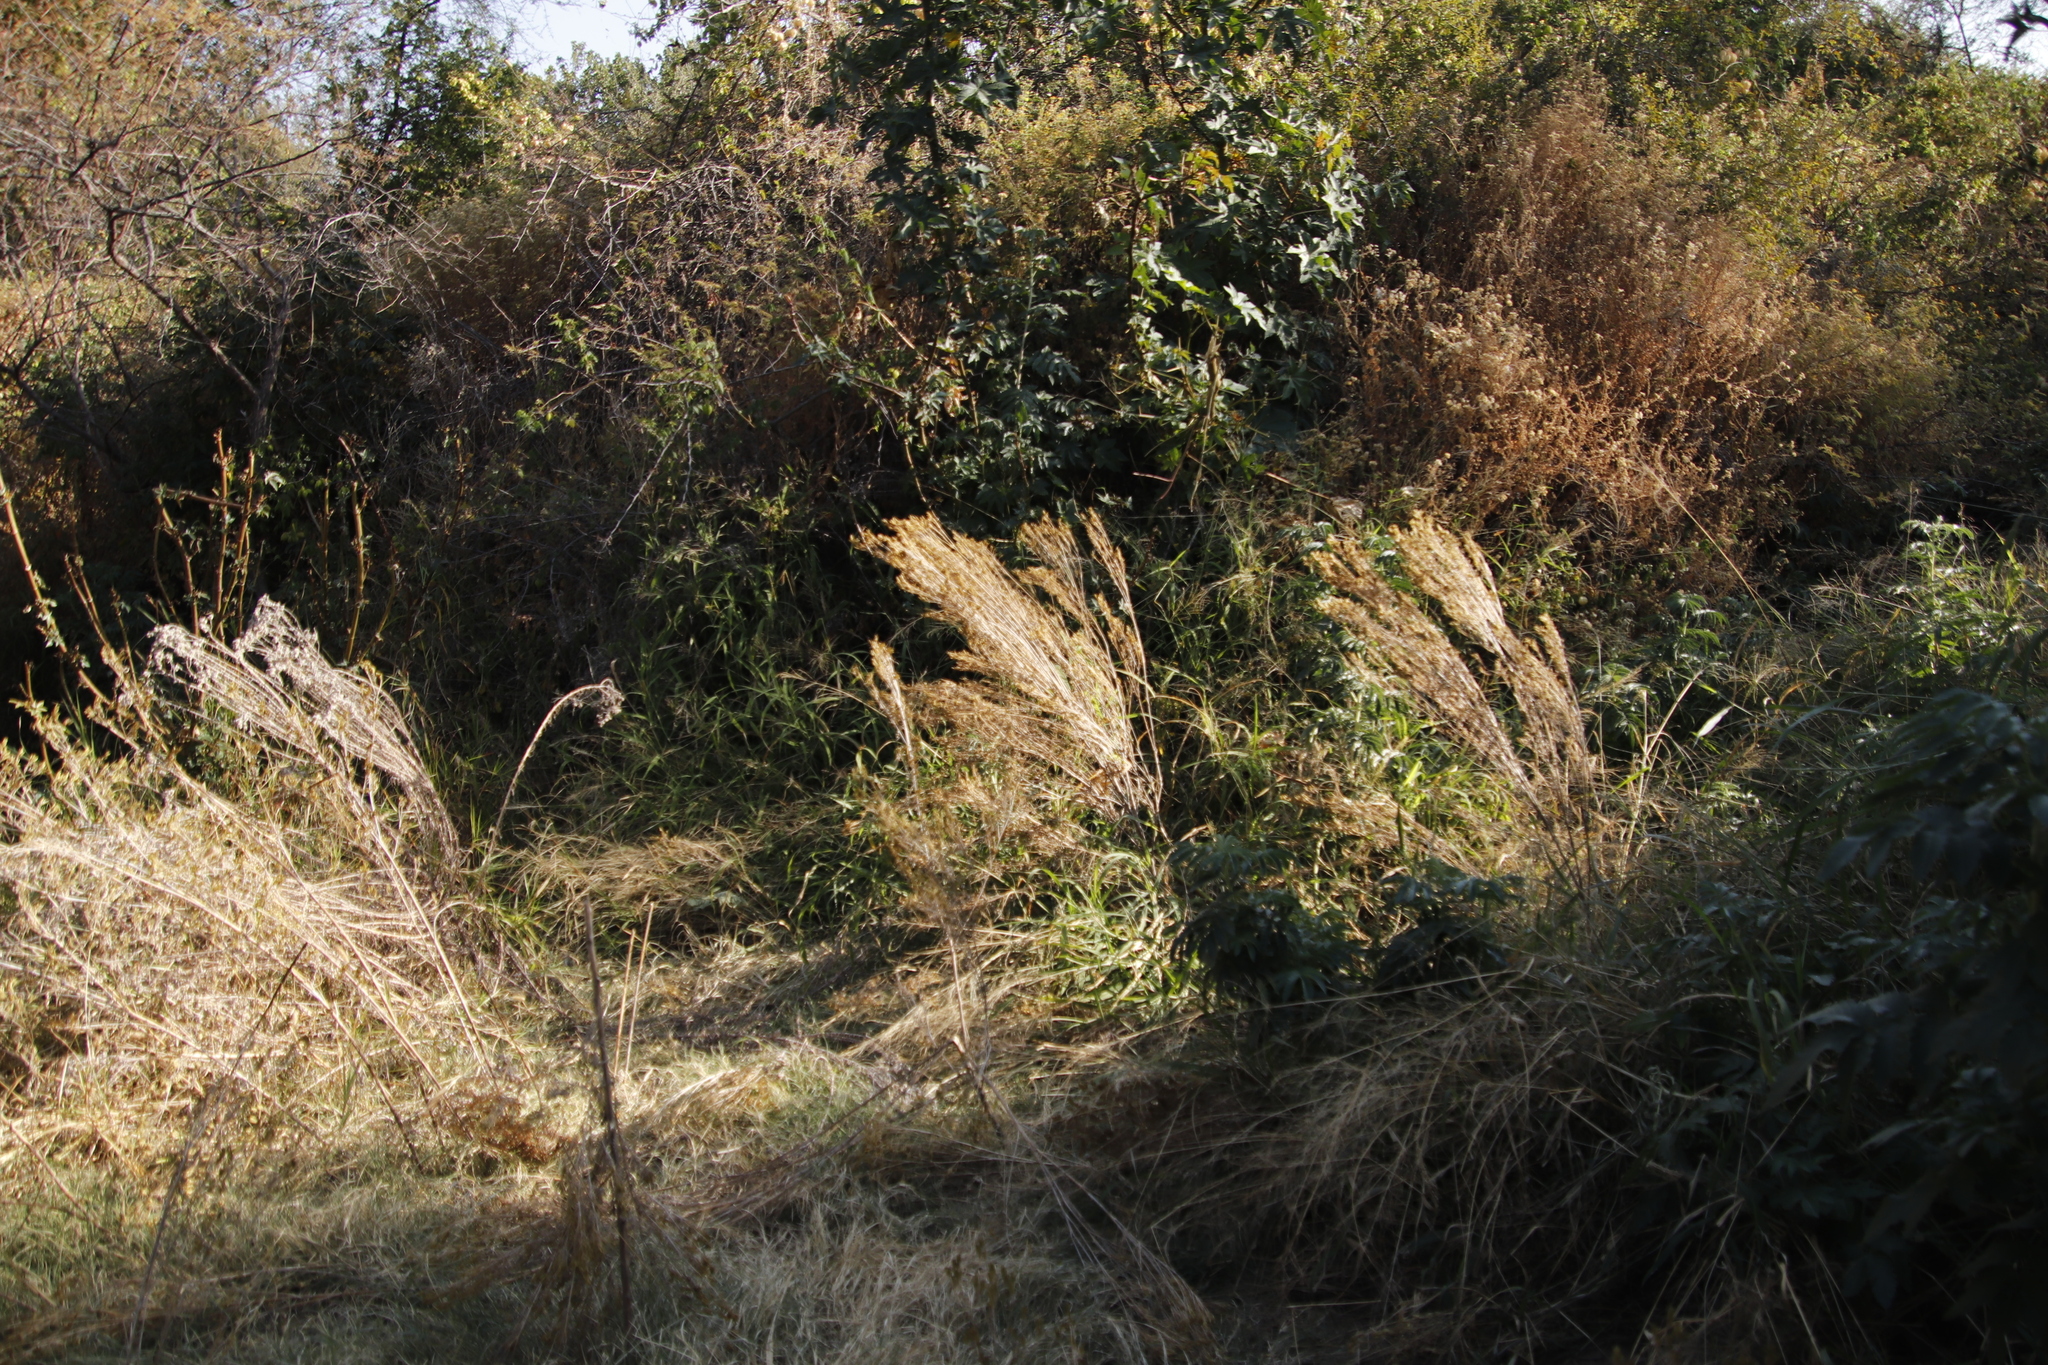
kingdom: Plantae
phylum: Tracheophyta
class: Magnoliopsida
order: Asterales
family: Asteraceae
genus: Tagetes
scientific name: Tagetes minuta
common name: Muster john henry
